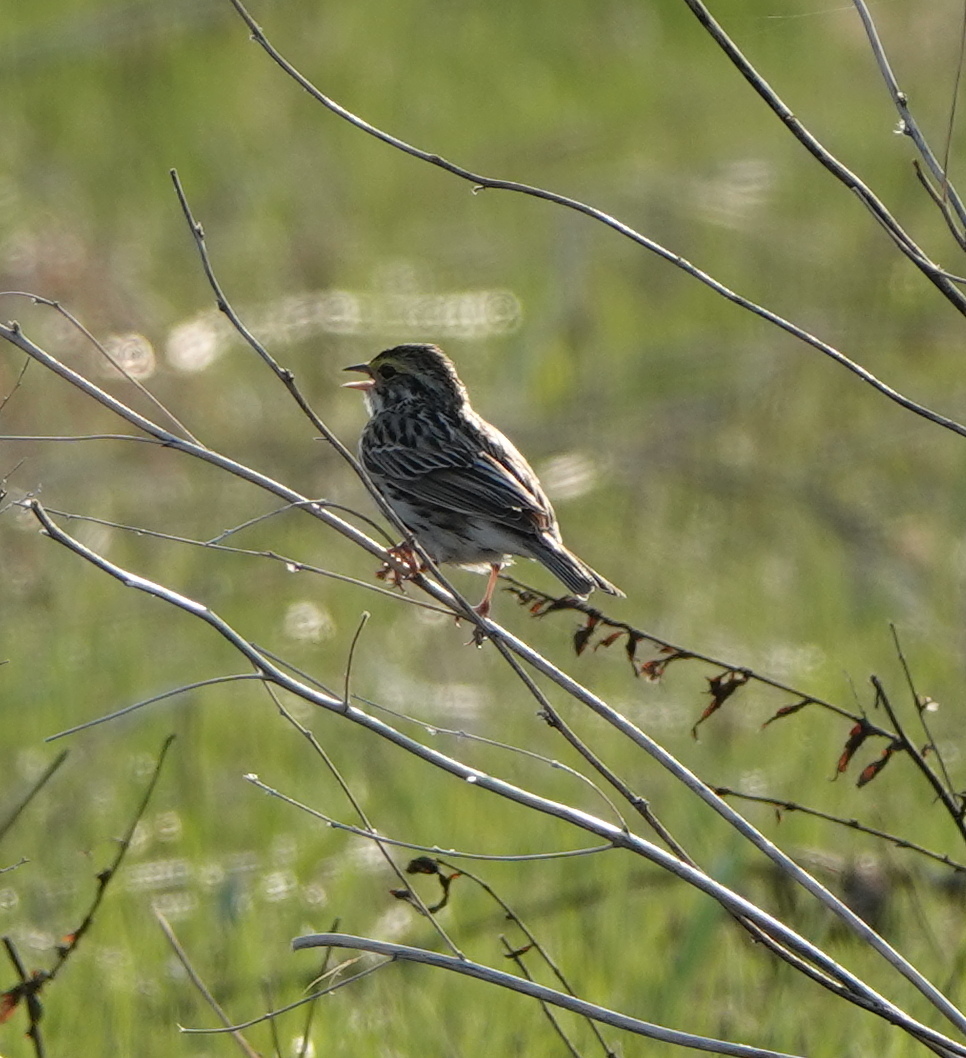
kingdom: Animalia
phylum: Chordata
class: Aves
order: Passeriformes
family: Passerellidae
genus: Passerculus
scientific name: Passerculus sandwichensis
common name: Savannah sparrow
